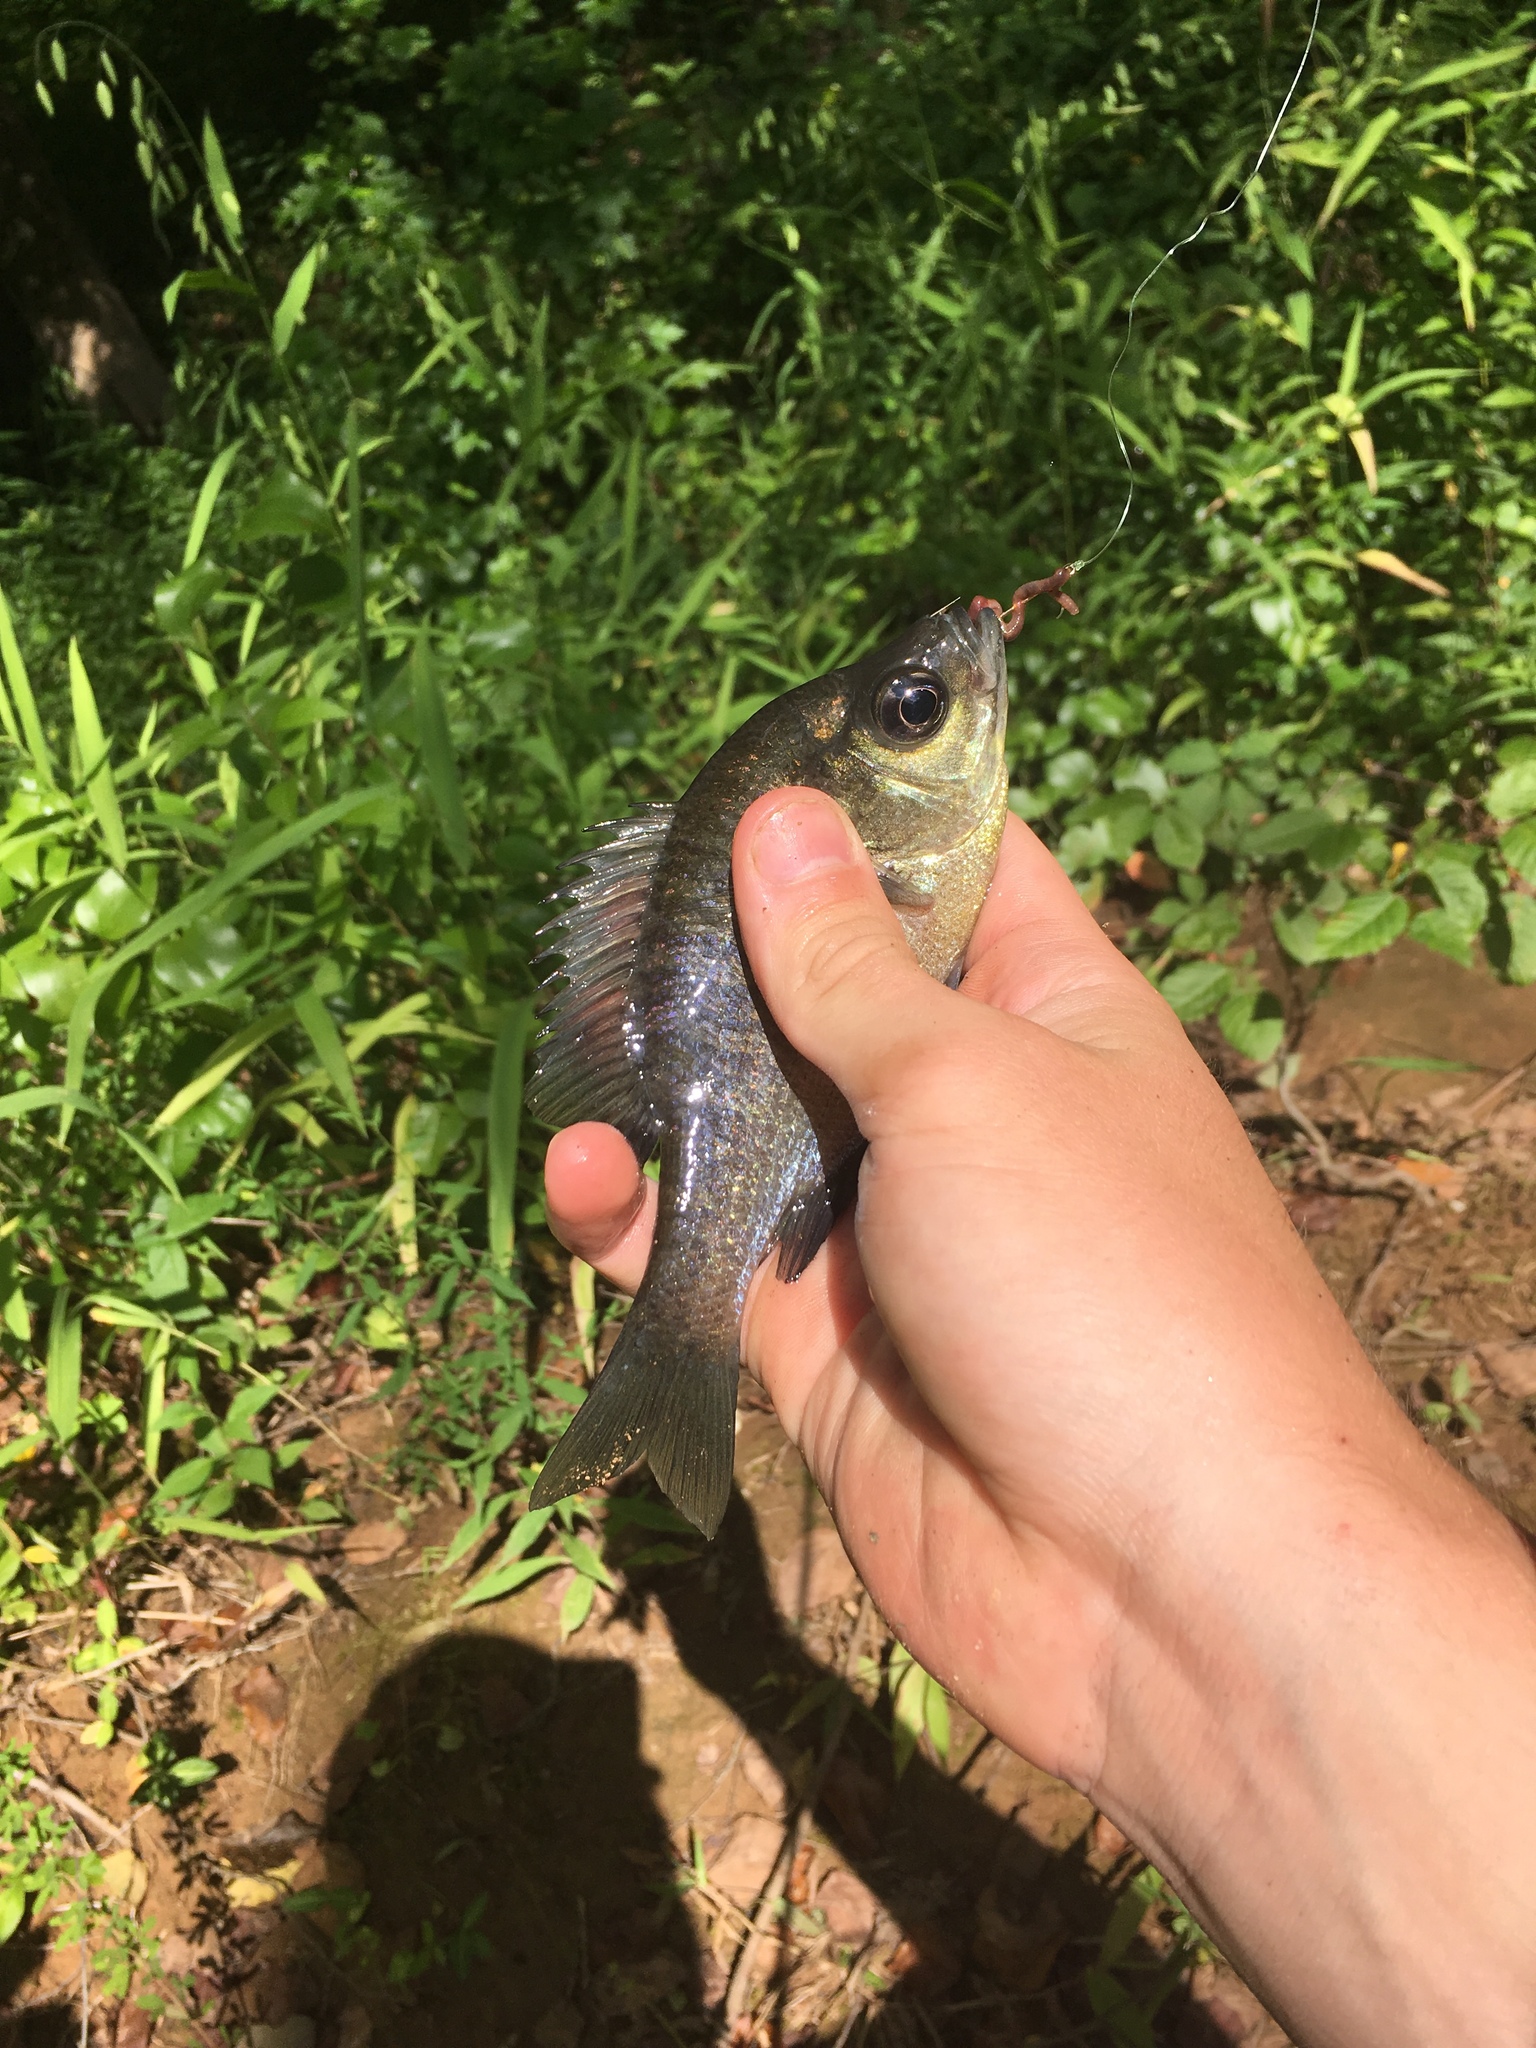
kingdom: Animalia
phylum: Chordata
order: Perciformes
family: Centrarchidae
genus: Lepomis
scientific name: Lepomis macrochirus
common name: Bluegill
